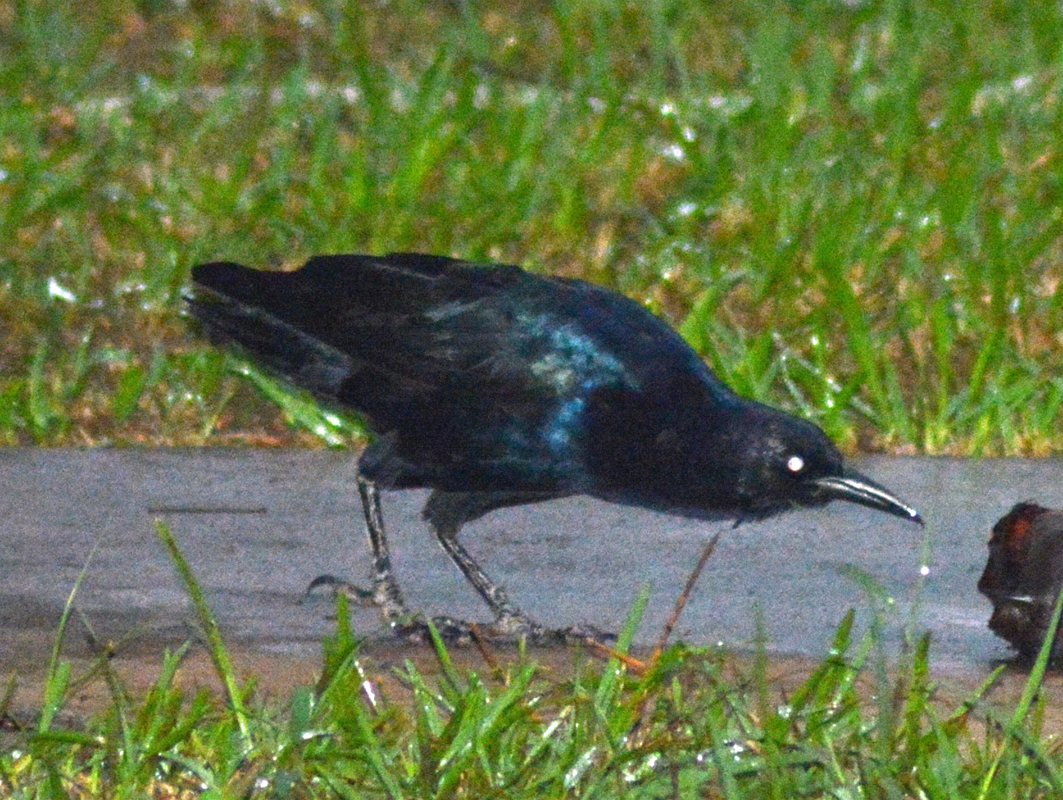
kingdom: Animalia
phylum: Chordata
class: Aves
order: Passeriformes
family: Icteridae
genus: Quiscalus
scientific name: Quiscalus mexicanus
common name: Great-tailed grackle
